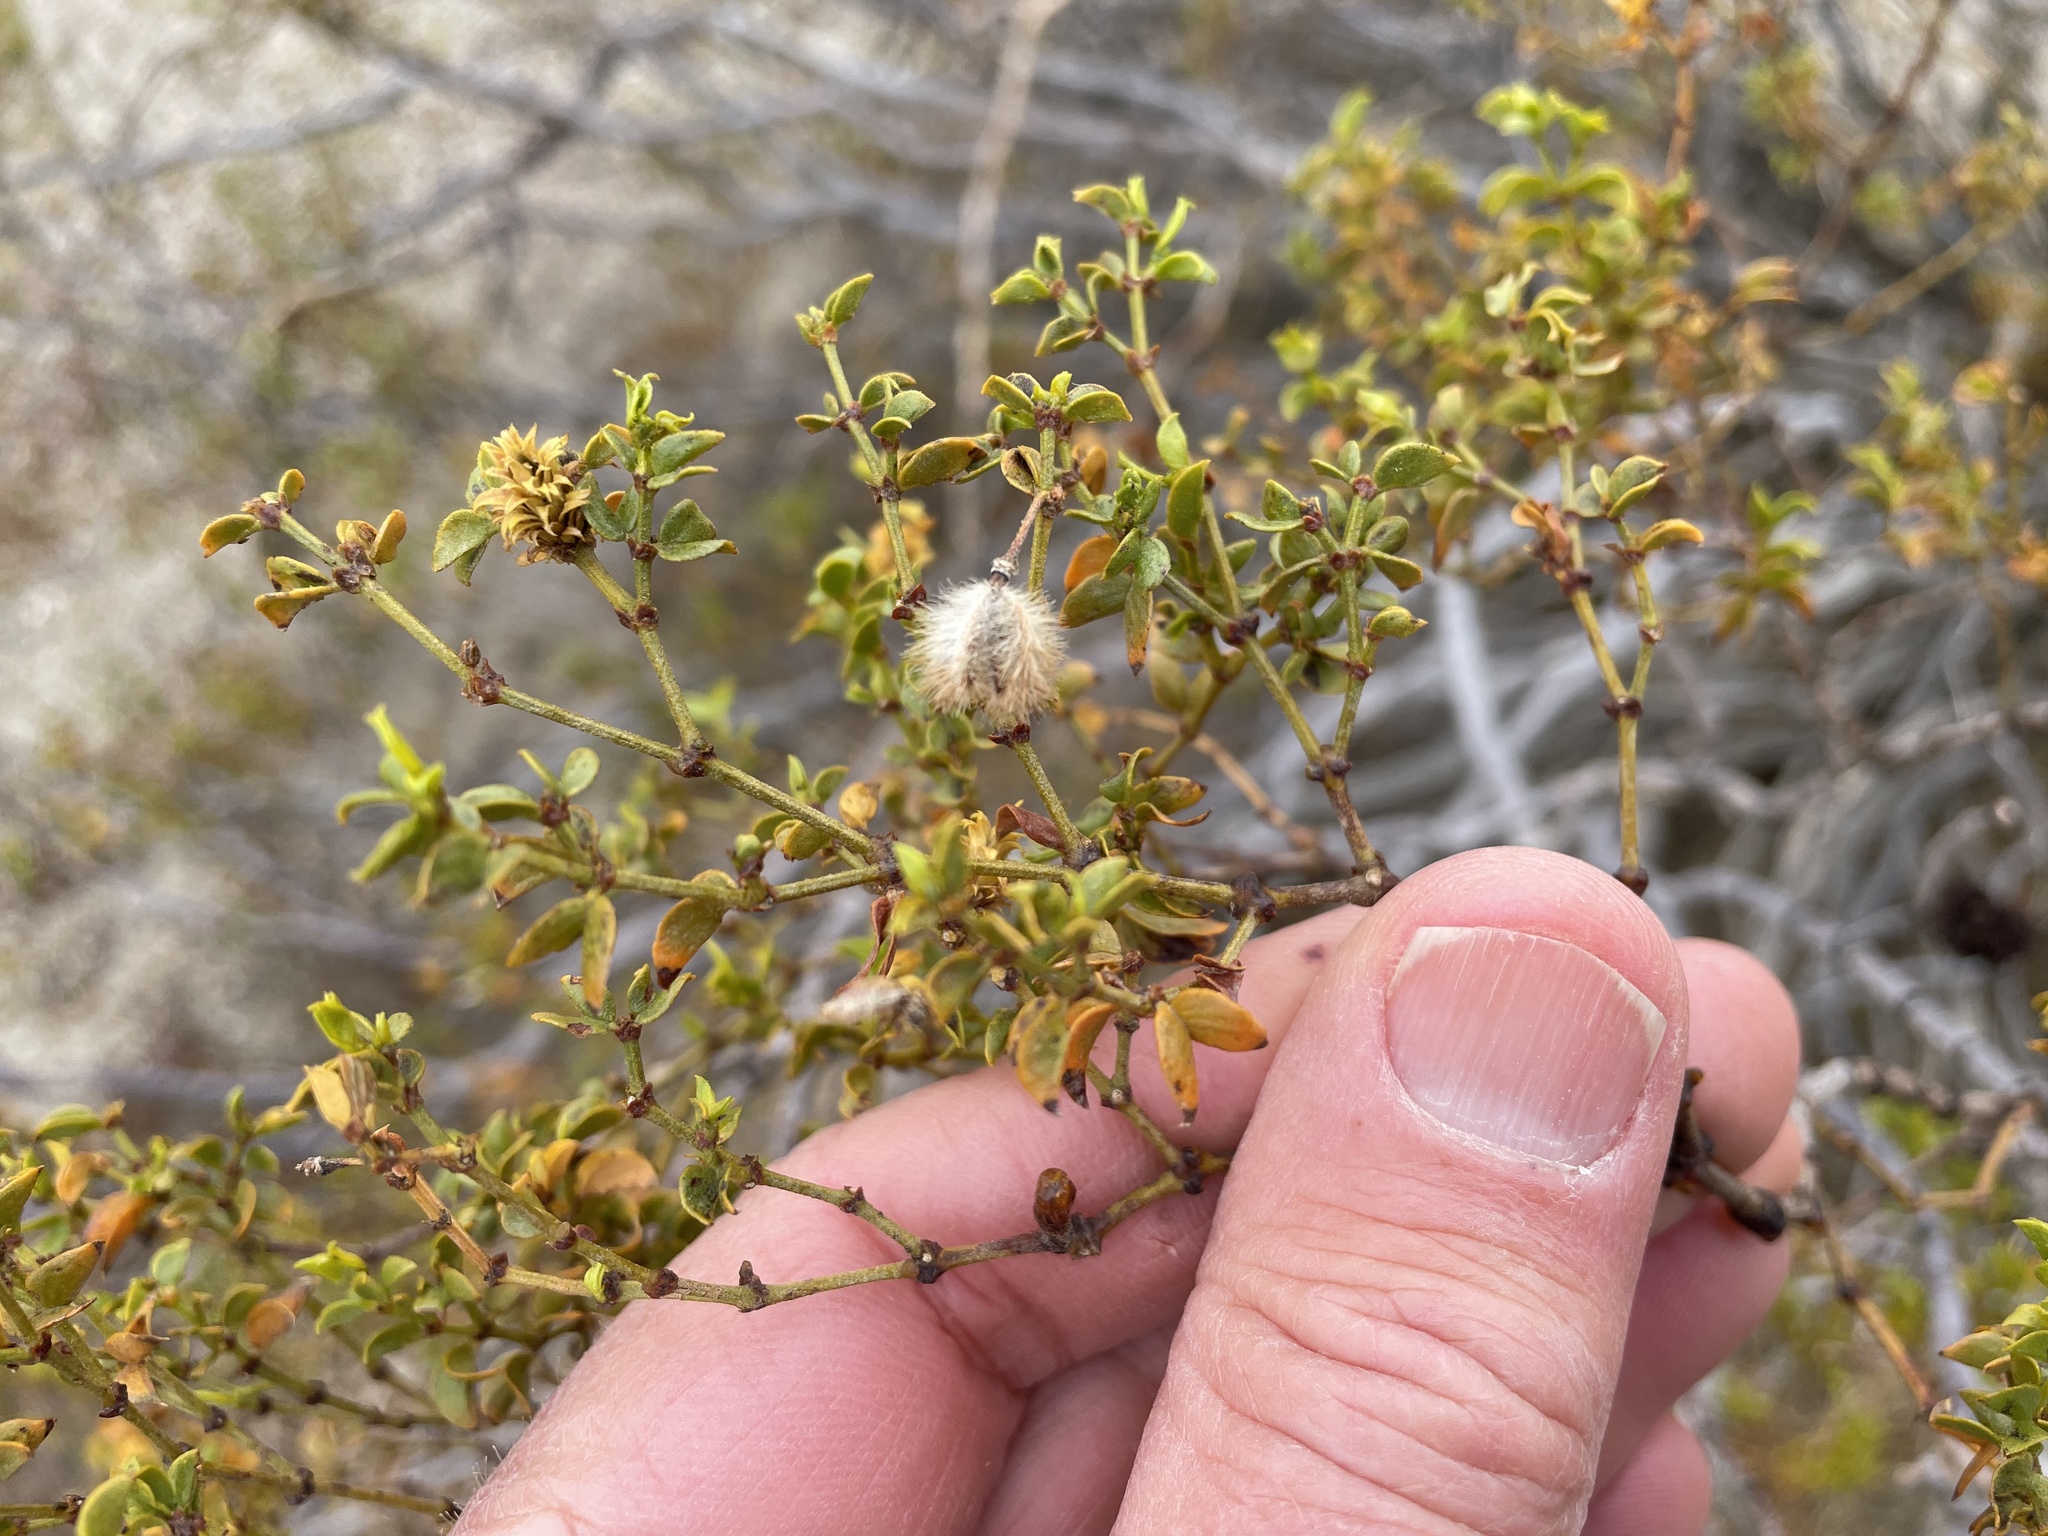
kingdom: Plantae
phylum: Tracheophyta
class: Magnoliopsida
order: Zygophyllales
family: Zygophyllaceae
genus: Larrea
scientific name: Larrea tridentata
